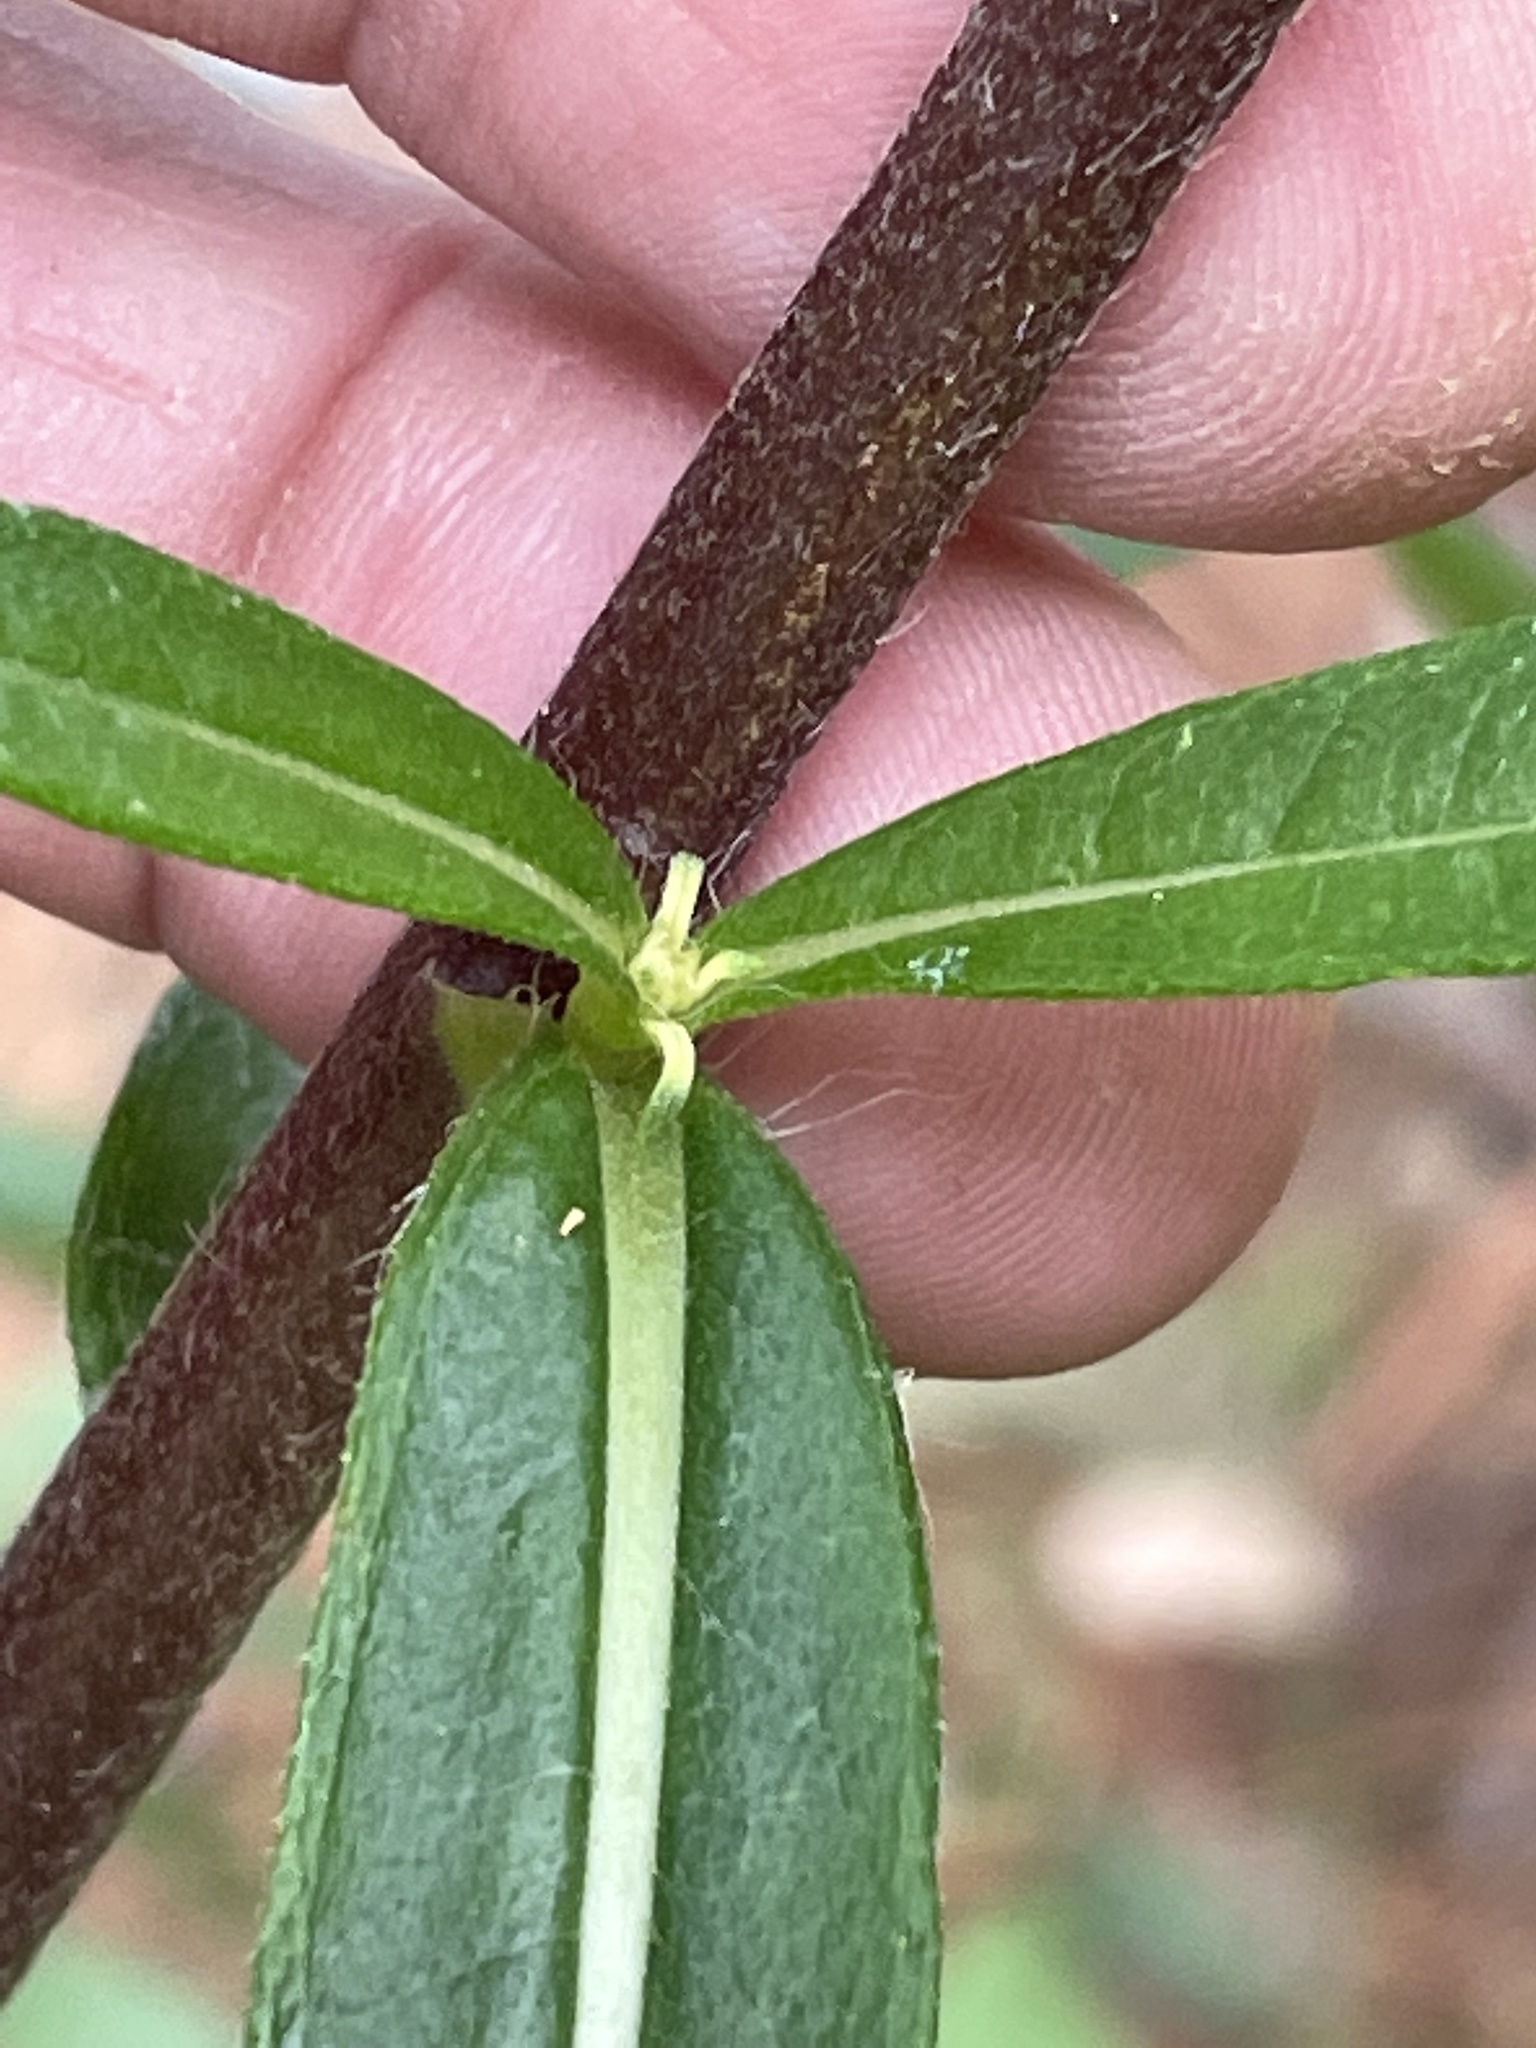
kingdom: Plantae
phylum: Tracheophyta
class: Magnoliopsida
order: Asterales
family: Asteraceae
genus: Helianthus
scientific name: Helianthus simulans
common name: Muck sunflower
